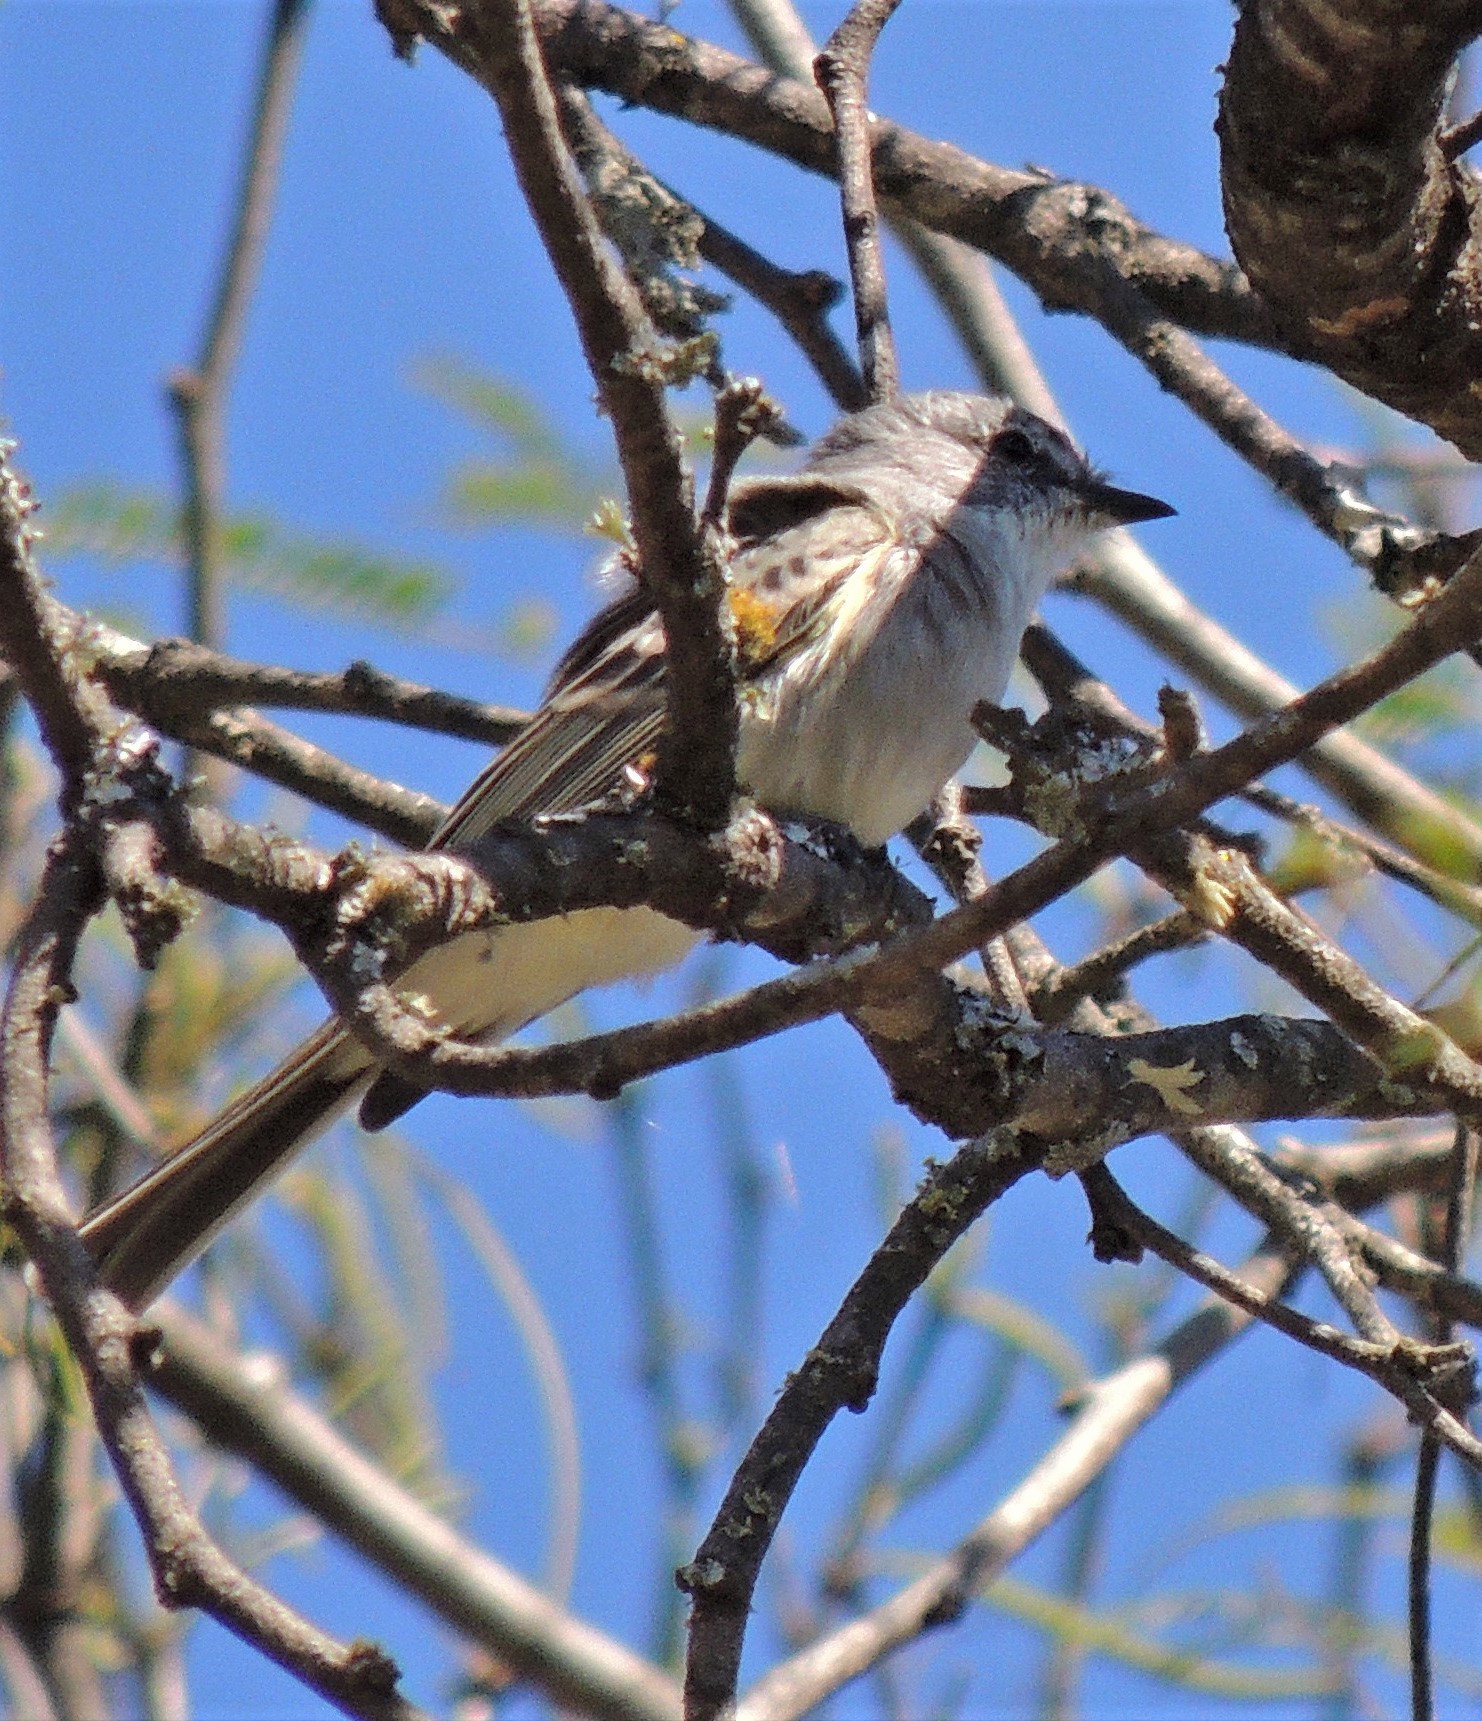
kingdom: Animalia
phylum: Chordata
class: Aves
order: Passeriformes
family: Tyrannidae
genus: Suiriri
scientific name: Suiriri suiriri
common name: Suiriri flycatcher
